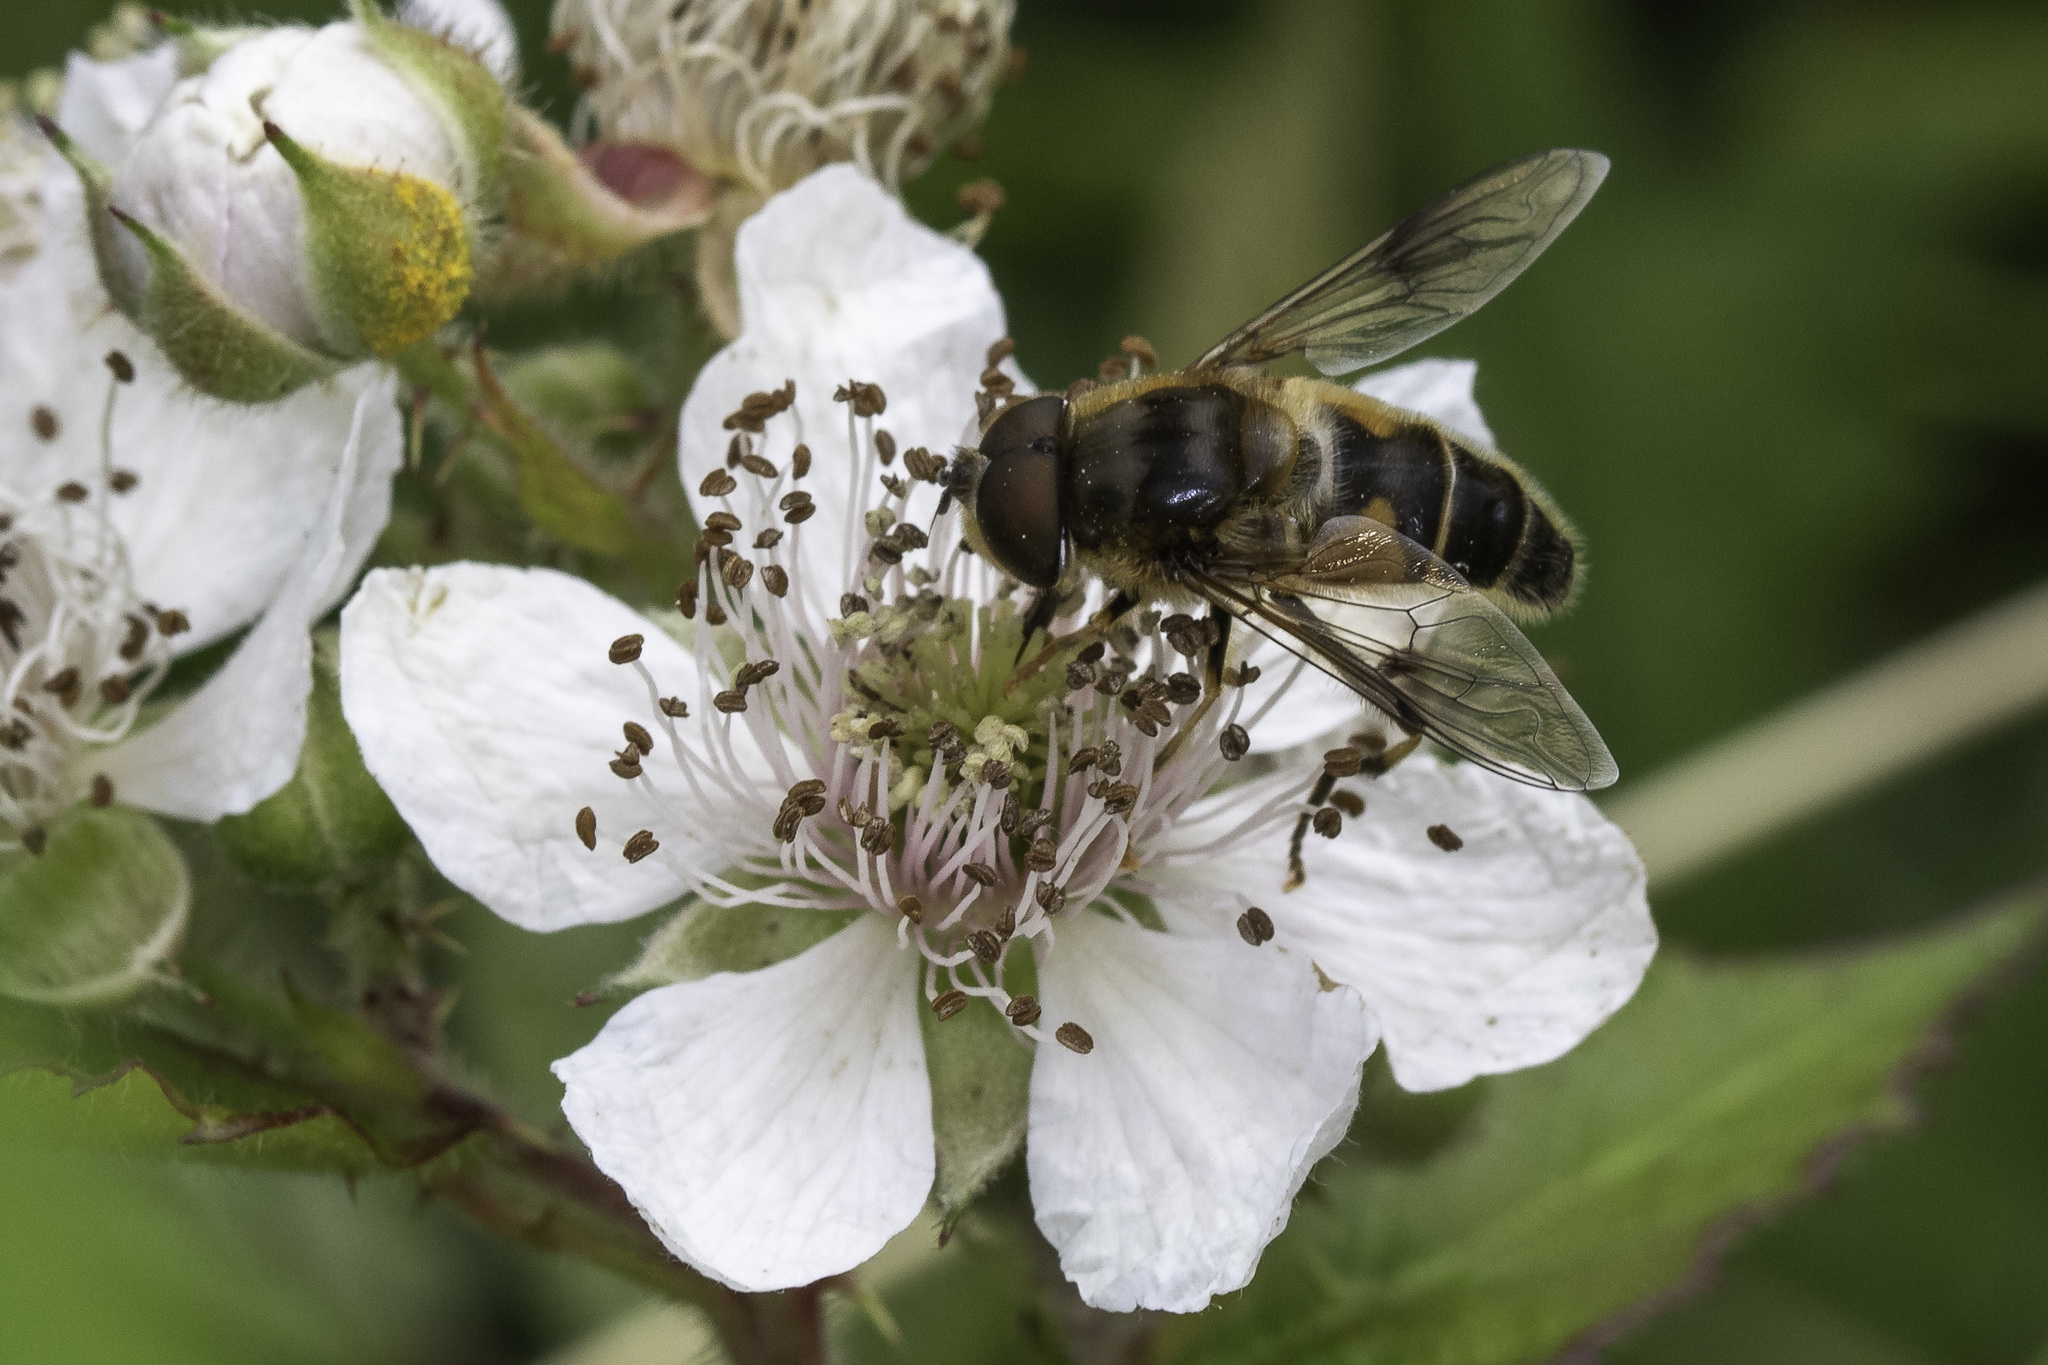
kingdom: Animalia
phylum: Arthropoda
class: Insecta
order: Diptera
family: Syrphidae
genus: Eristalis
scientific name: Eristalis pertinax
